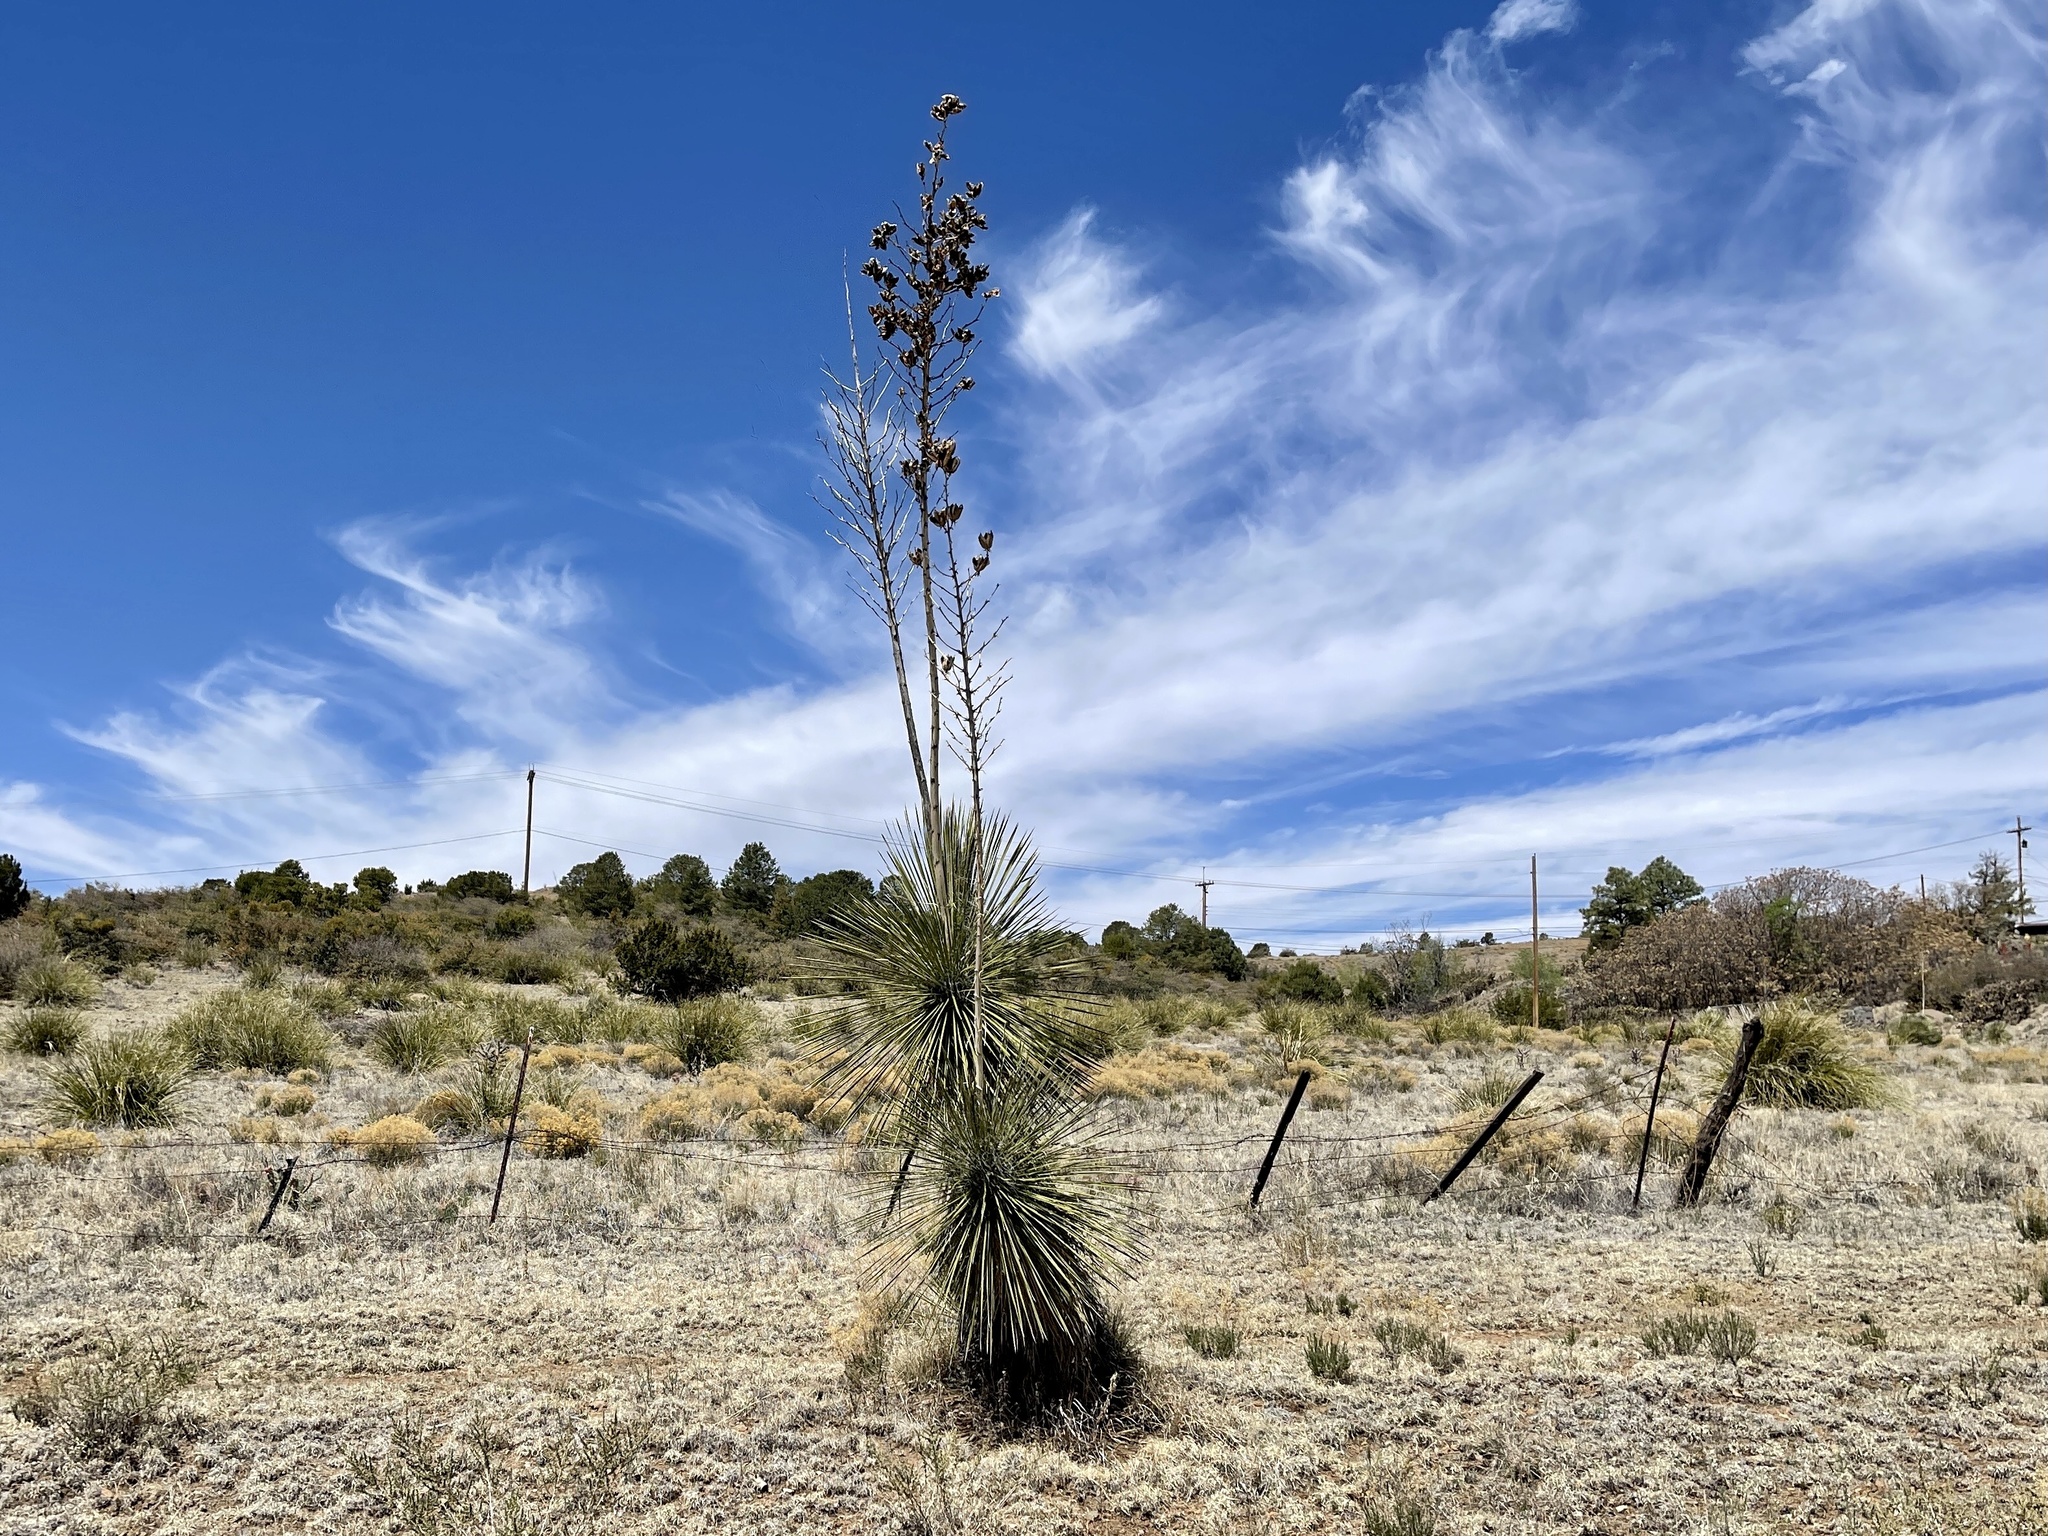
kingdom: Plantae
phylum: Tracheophyta
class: Liliopsida
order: Asparagales
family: Asparagaceae
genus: Yucca
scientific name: Yucca elata
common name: Palmella
